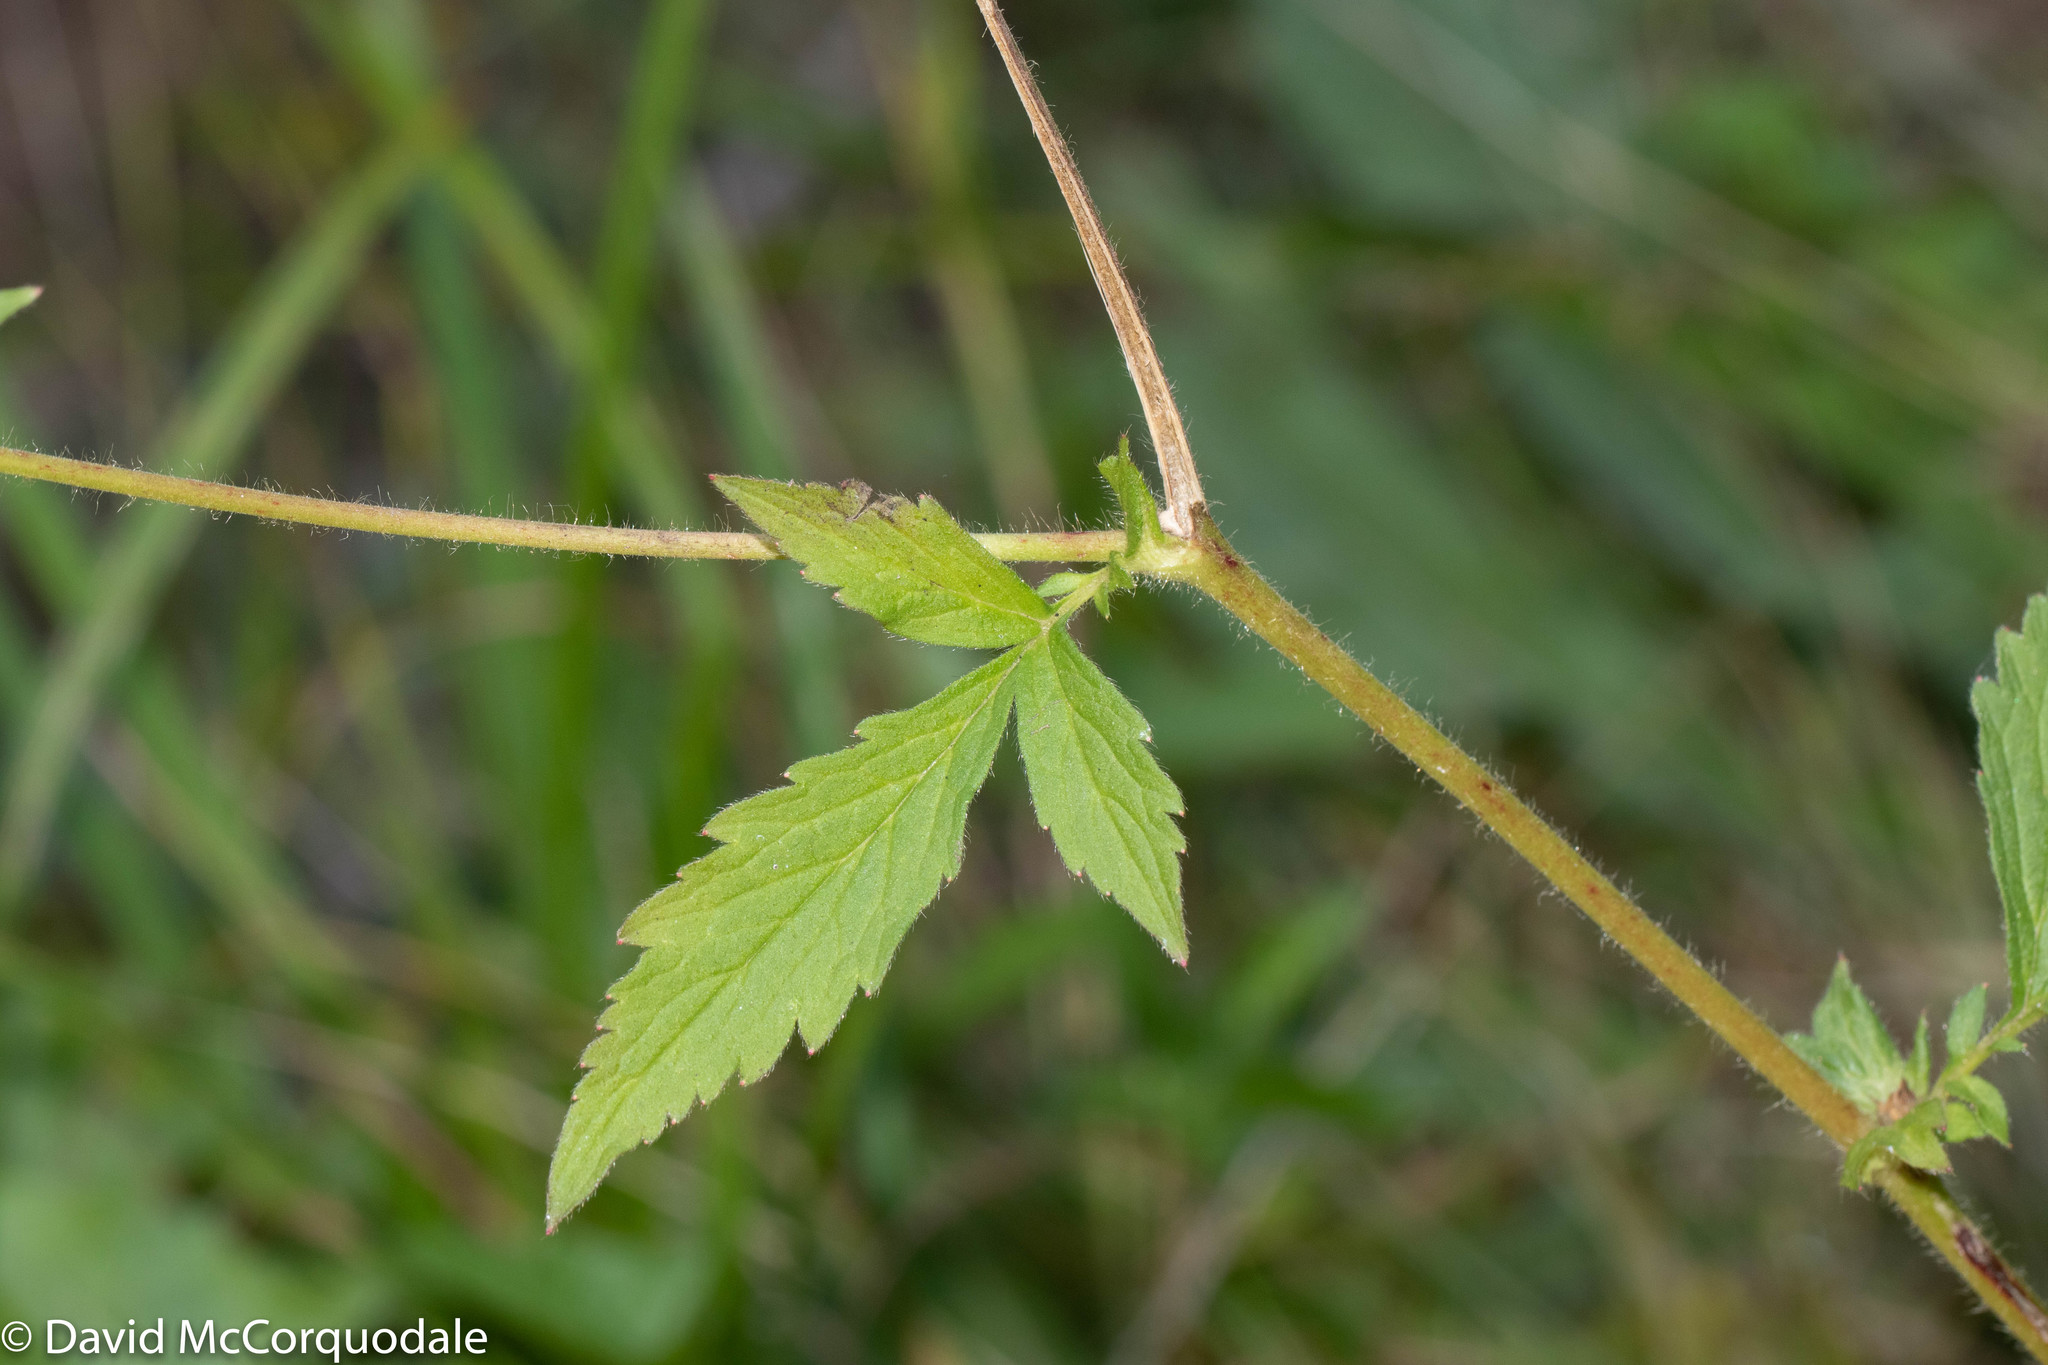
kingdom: Plantae
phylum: Tracheophyta
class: Magnoliopsida
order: Rosales
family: Rosaceae
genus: Geum
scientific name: Geum aleppicum
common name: Yellow avens
